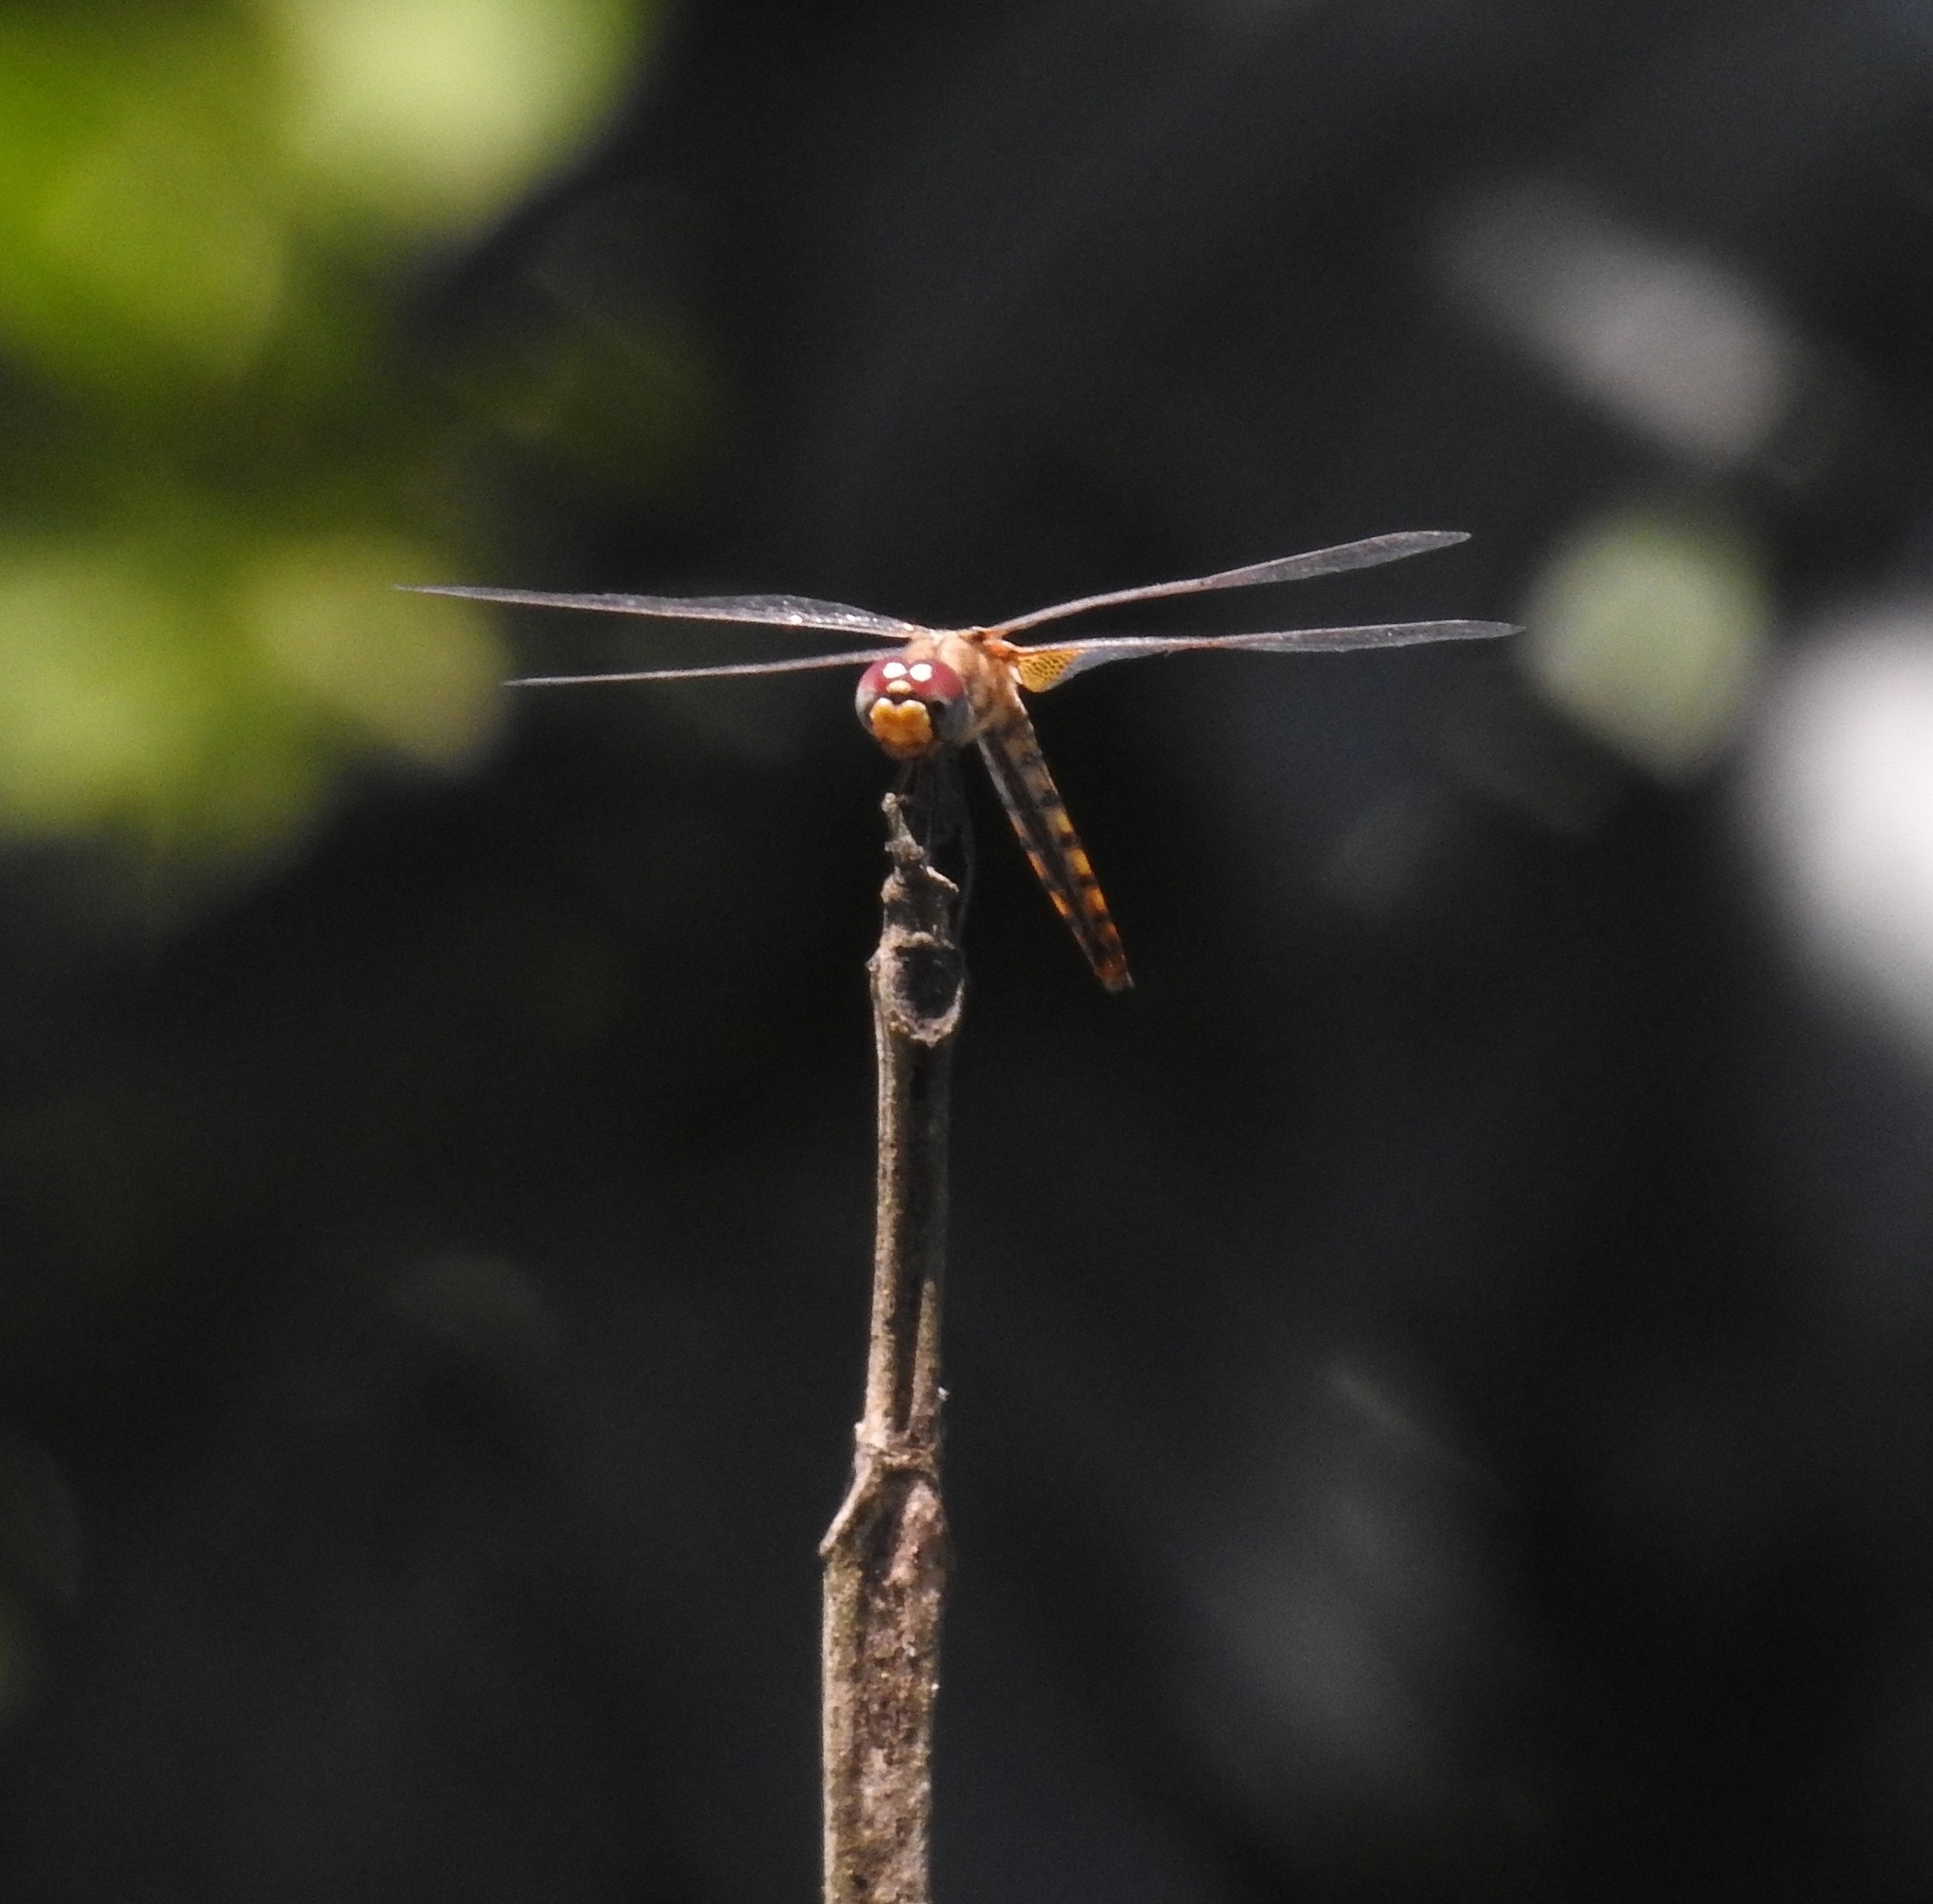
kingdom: Animalia
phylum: Arthropoda
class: Insecta
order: Odonata
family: Libellulidae
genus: Urothemis
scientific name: Urothemis signata
